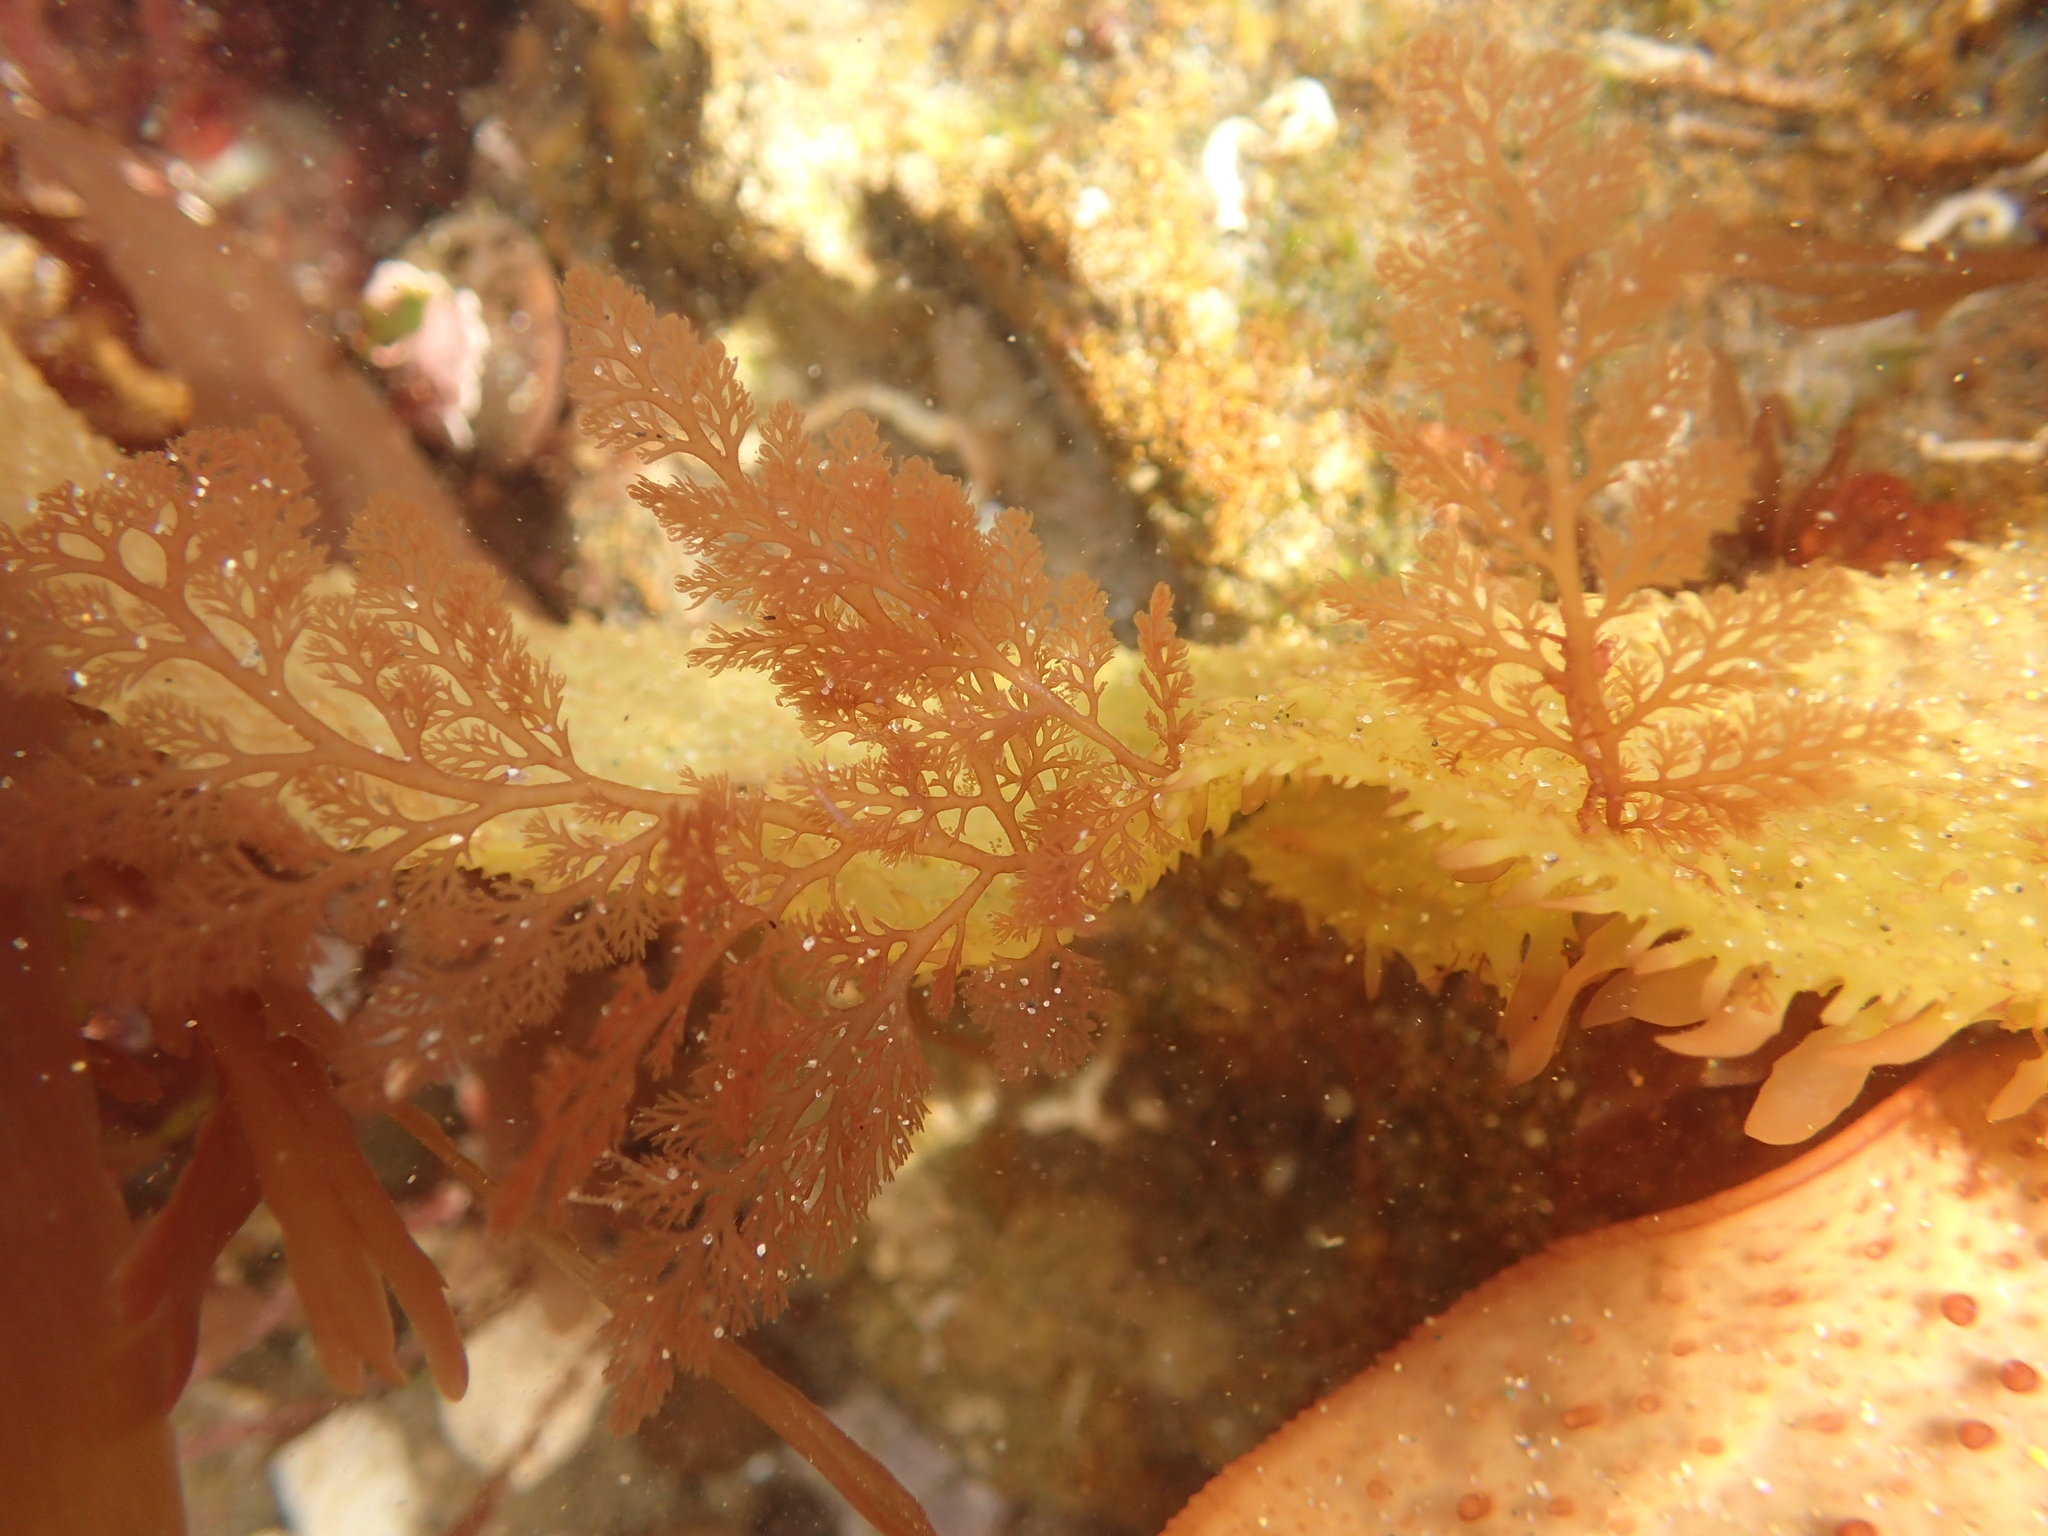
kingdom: Plantae
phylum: Rhodophyta
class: Florideophyceae
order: Ceramiales
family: Ceramiaceae
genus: Microcladia
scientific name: Microcladia coulteri
